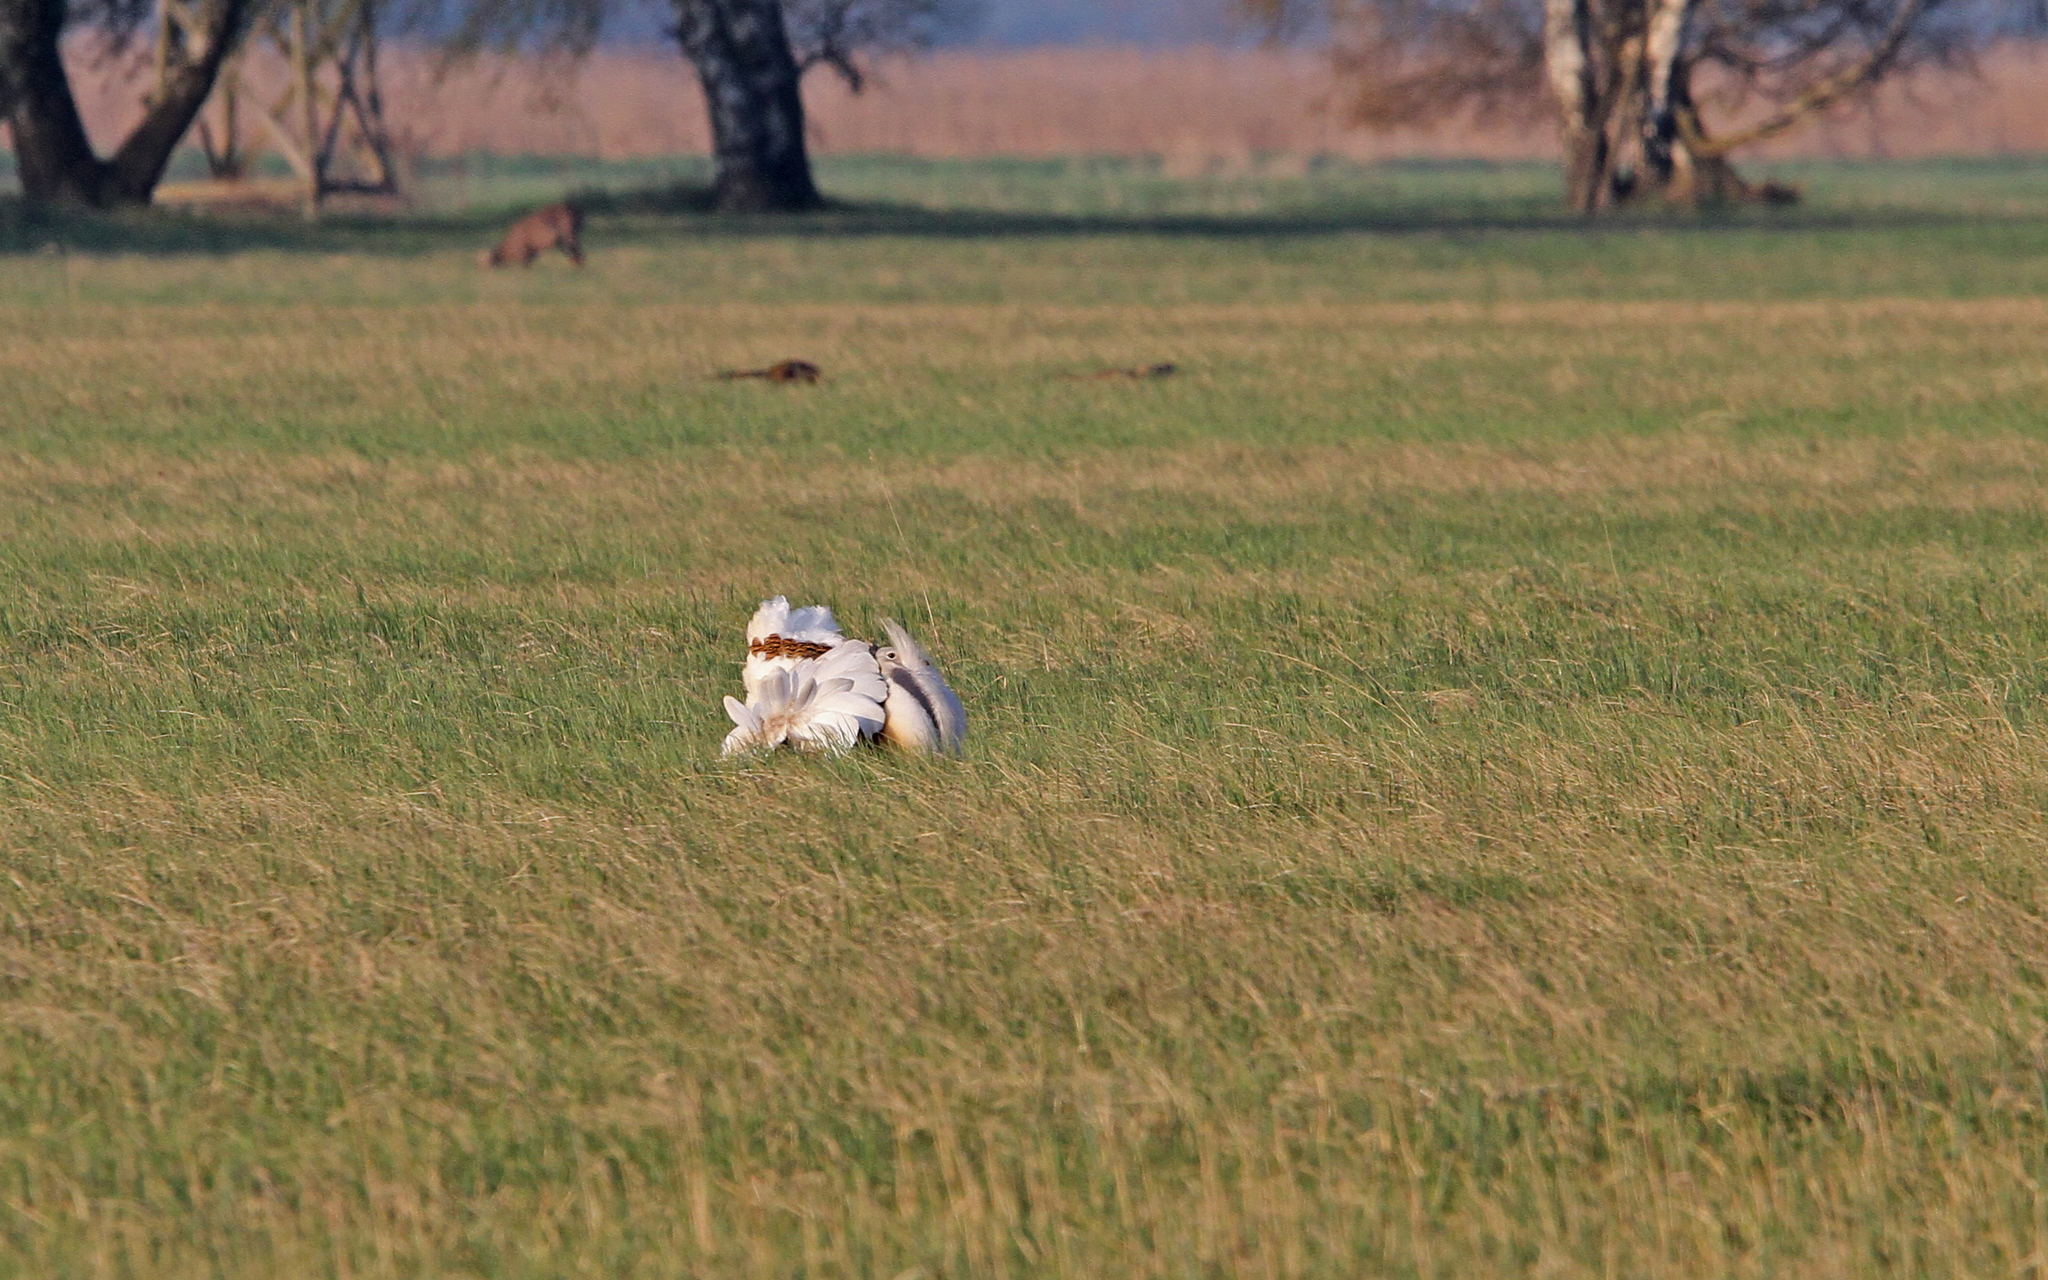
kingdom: Animalia
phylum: Chordata
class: Aves
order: Otidiformes
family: Otididae
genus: Otis
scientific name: Otis tarda
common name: Great bustard
